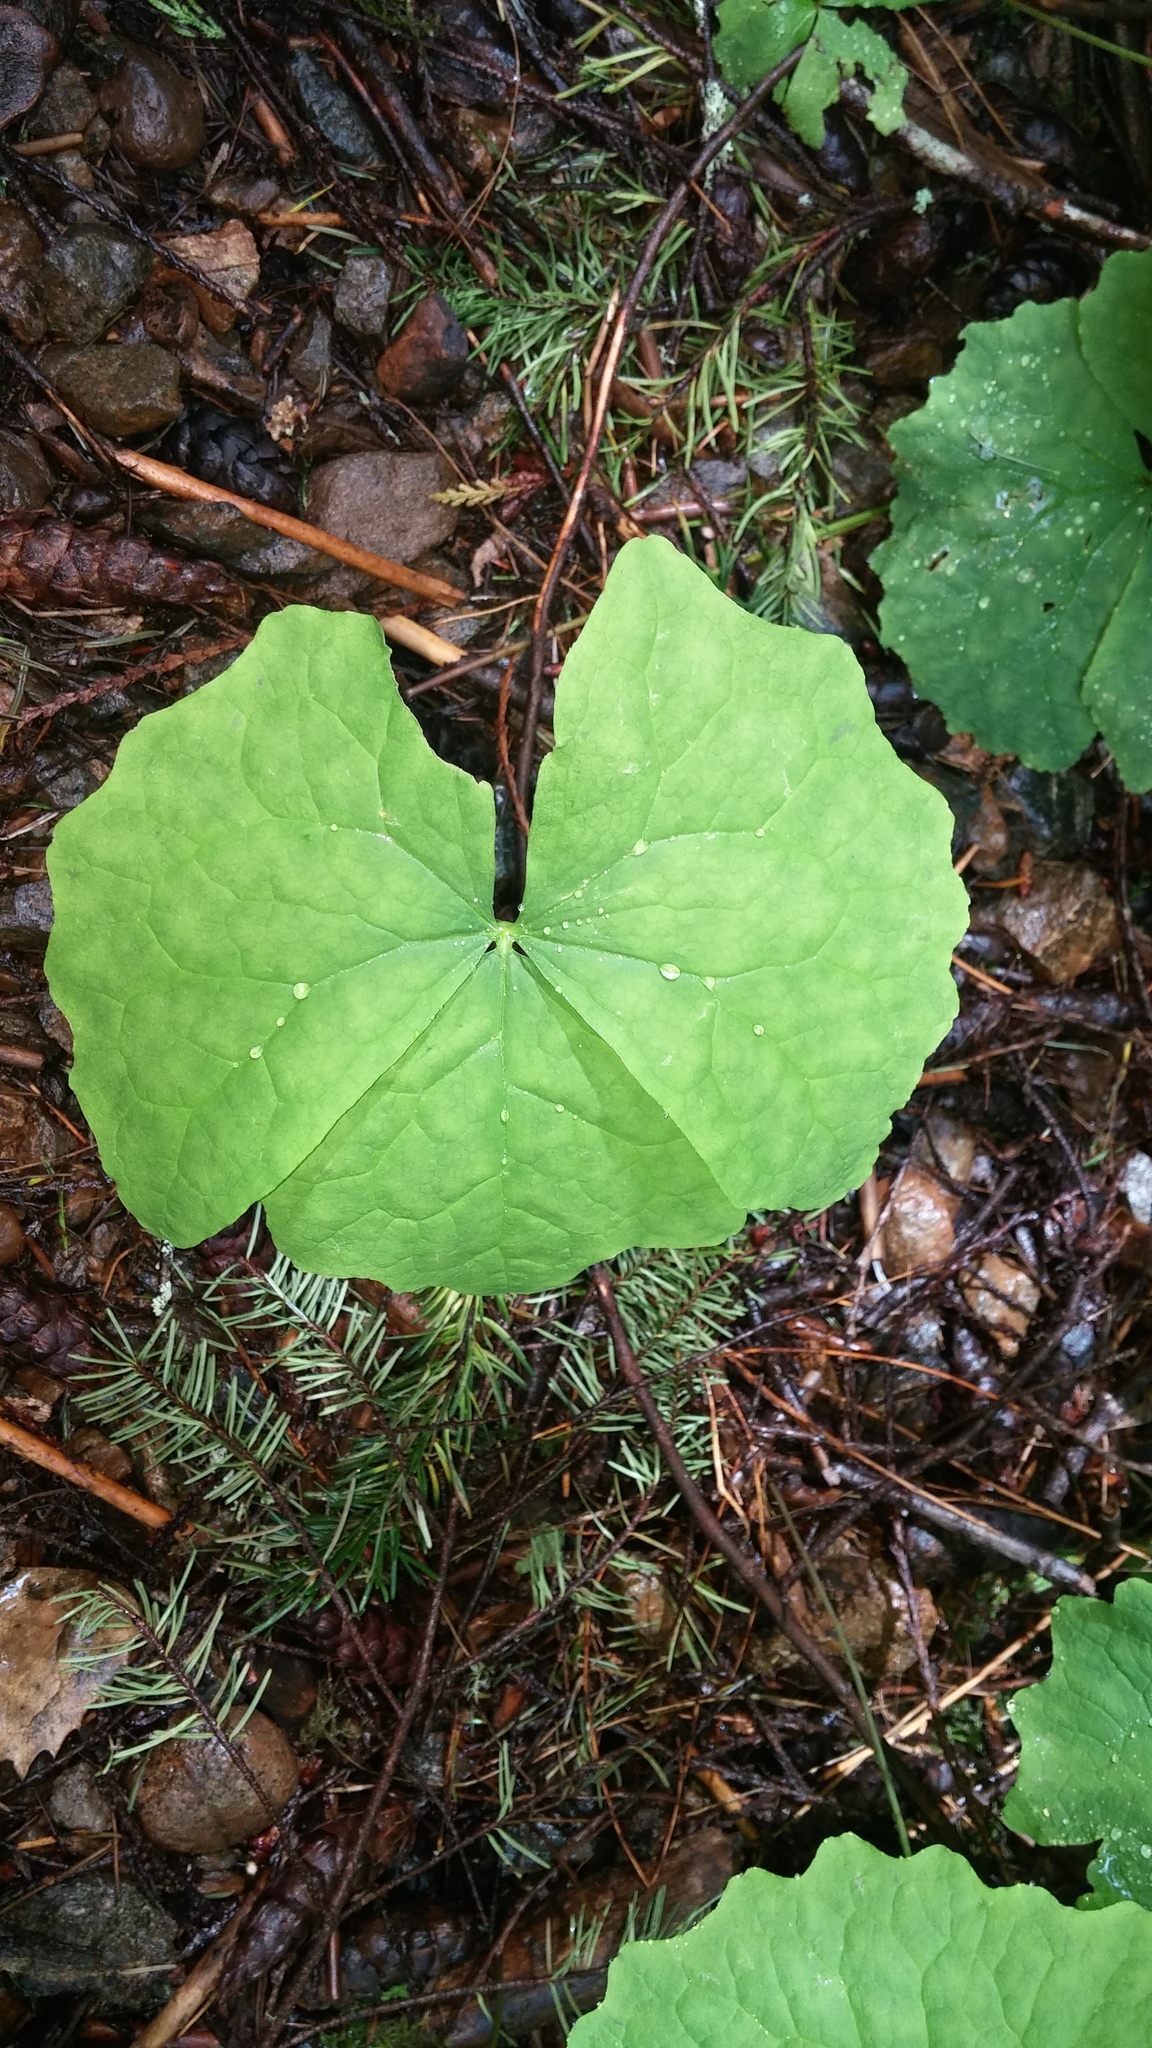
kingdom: Plantae
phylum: Tracheophyta
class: Magnoliopsida
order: Ranunculales
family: Berberidaceae
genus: Achlys
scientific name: Achlys triphylla
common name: Vanilla-leaf
